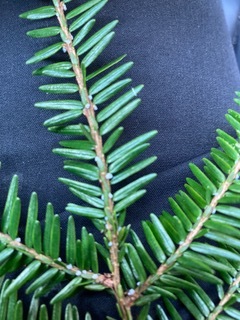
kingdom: Animalia
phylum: Arthropoda
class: Insecta
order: Hemiptera
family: Adelgidae
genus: Adelges
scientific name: Adelges tsugae
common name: Hemlock woolly adelgid
